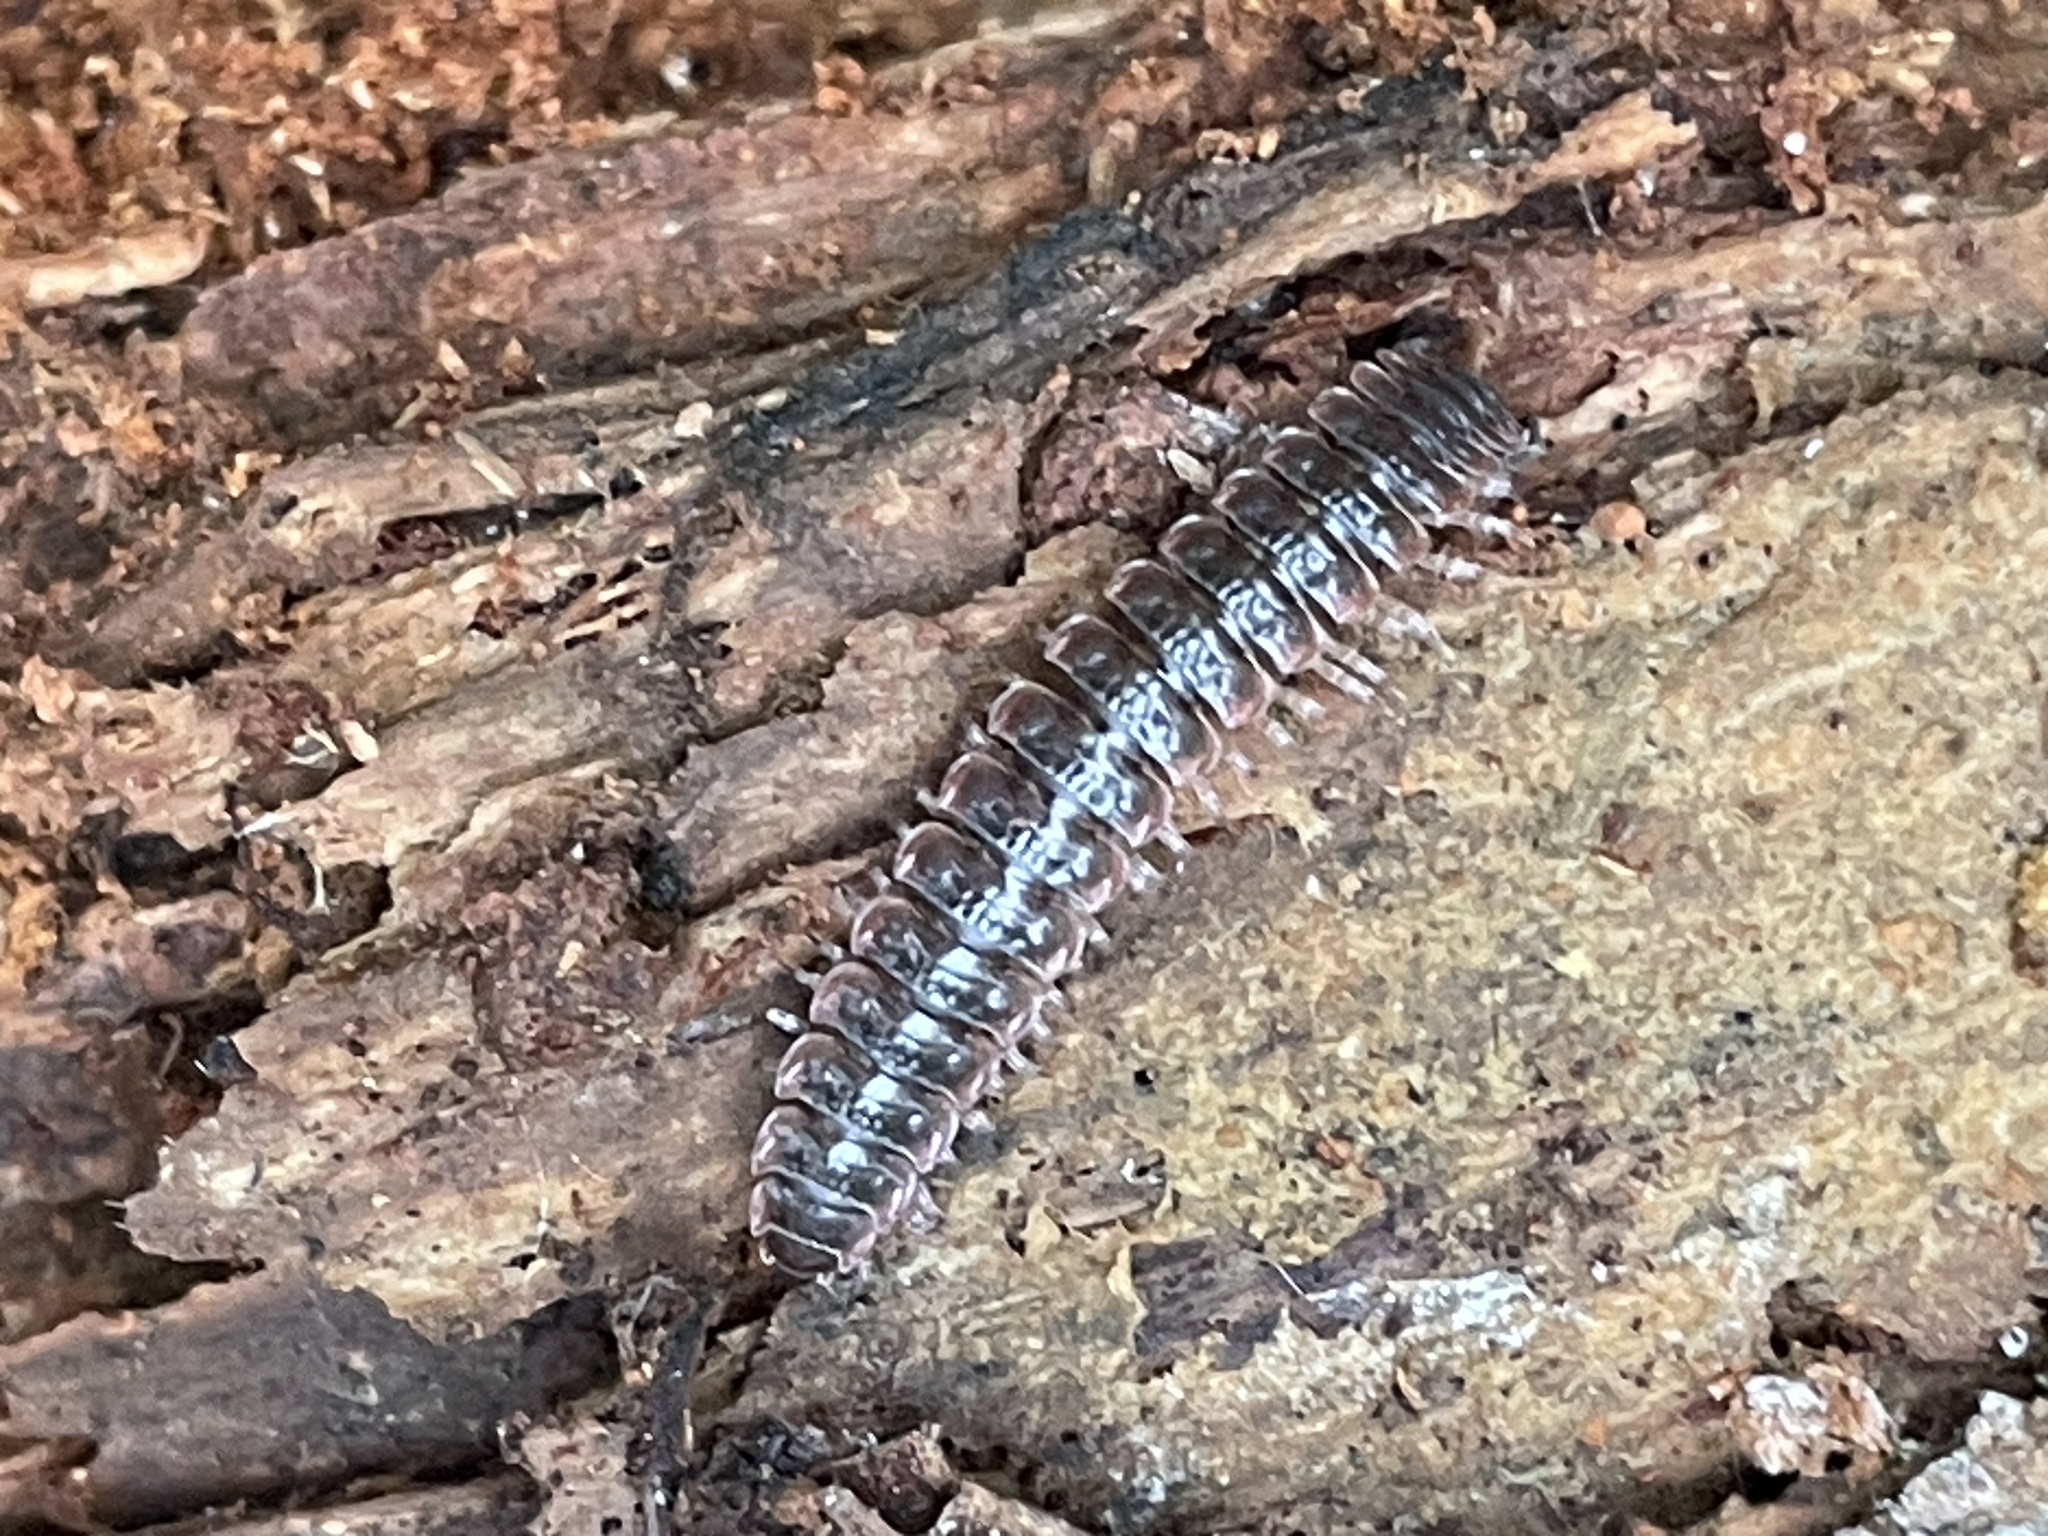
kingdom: Animalia
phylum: Arthropoda
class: Diplopoda
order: Polydesmida
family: Polydesmidae
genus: Pseudopolydesmus
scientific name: Pseudopolydesmus serratus
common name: Common pink flat-back millipede
